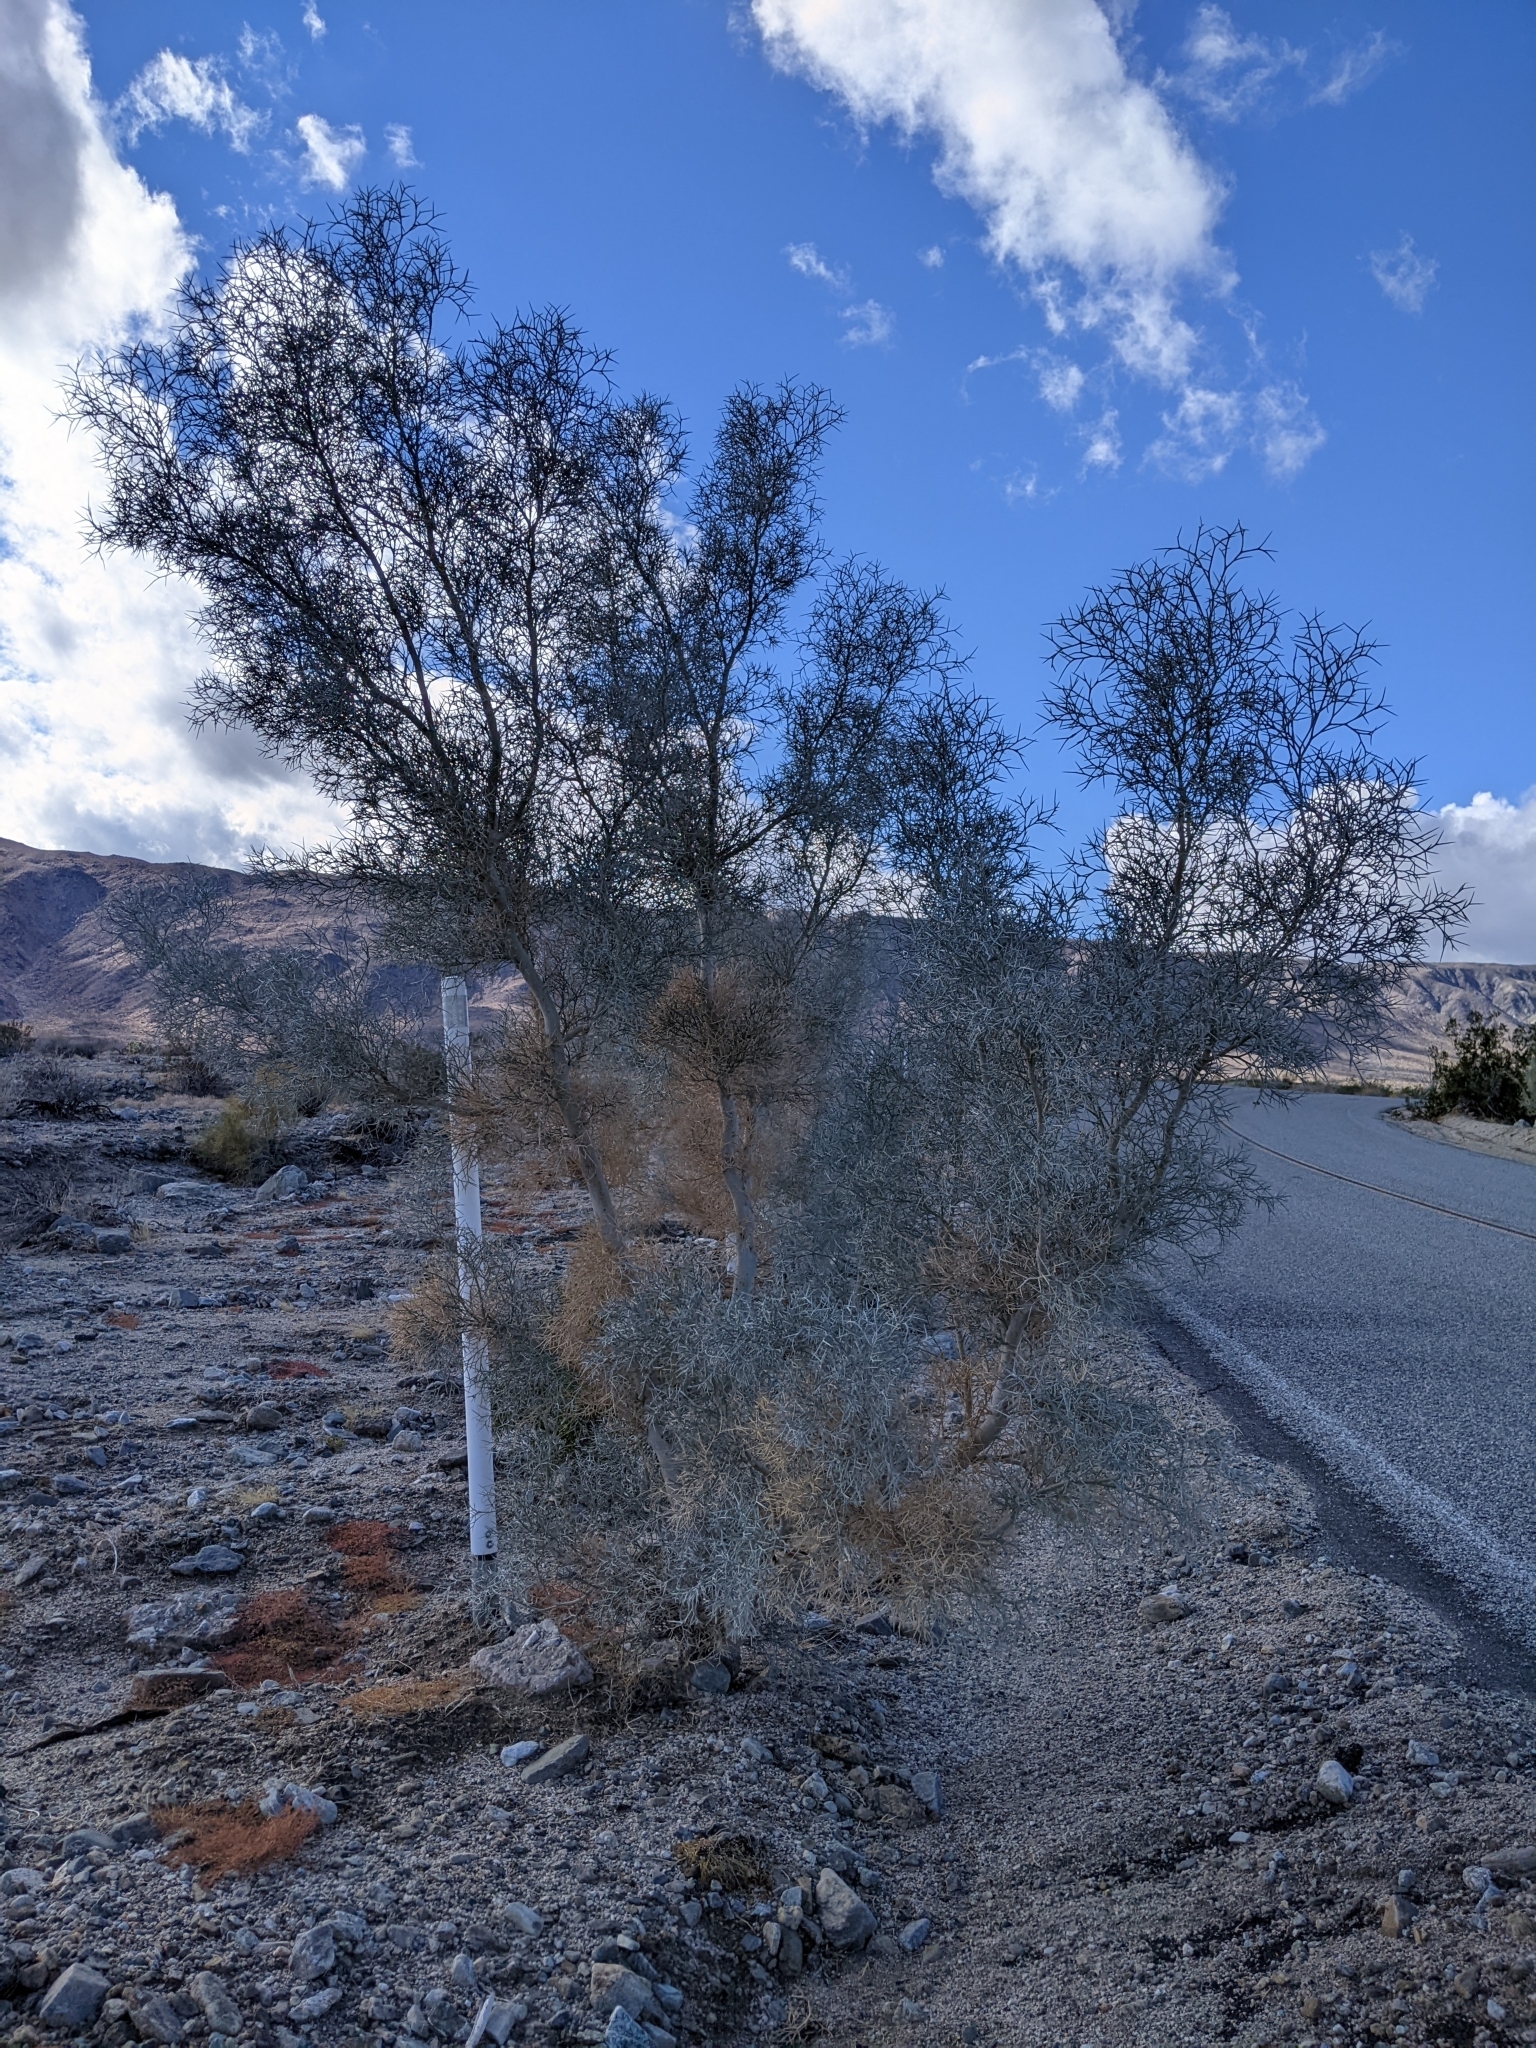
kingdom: Plantae
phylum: Tracheophyta
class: Magnoliopsida
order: Fabales
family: Fabaceae
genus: Psorothamnus
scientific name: Psorothamnus spinosus
